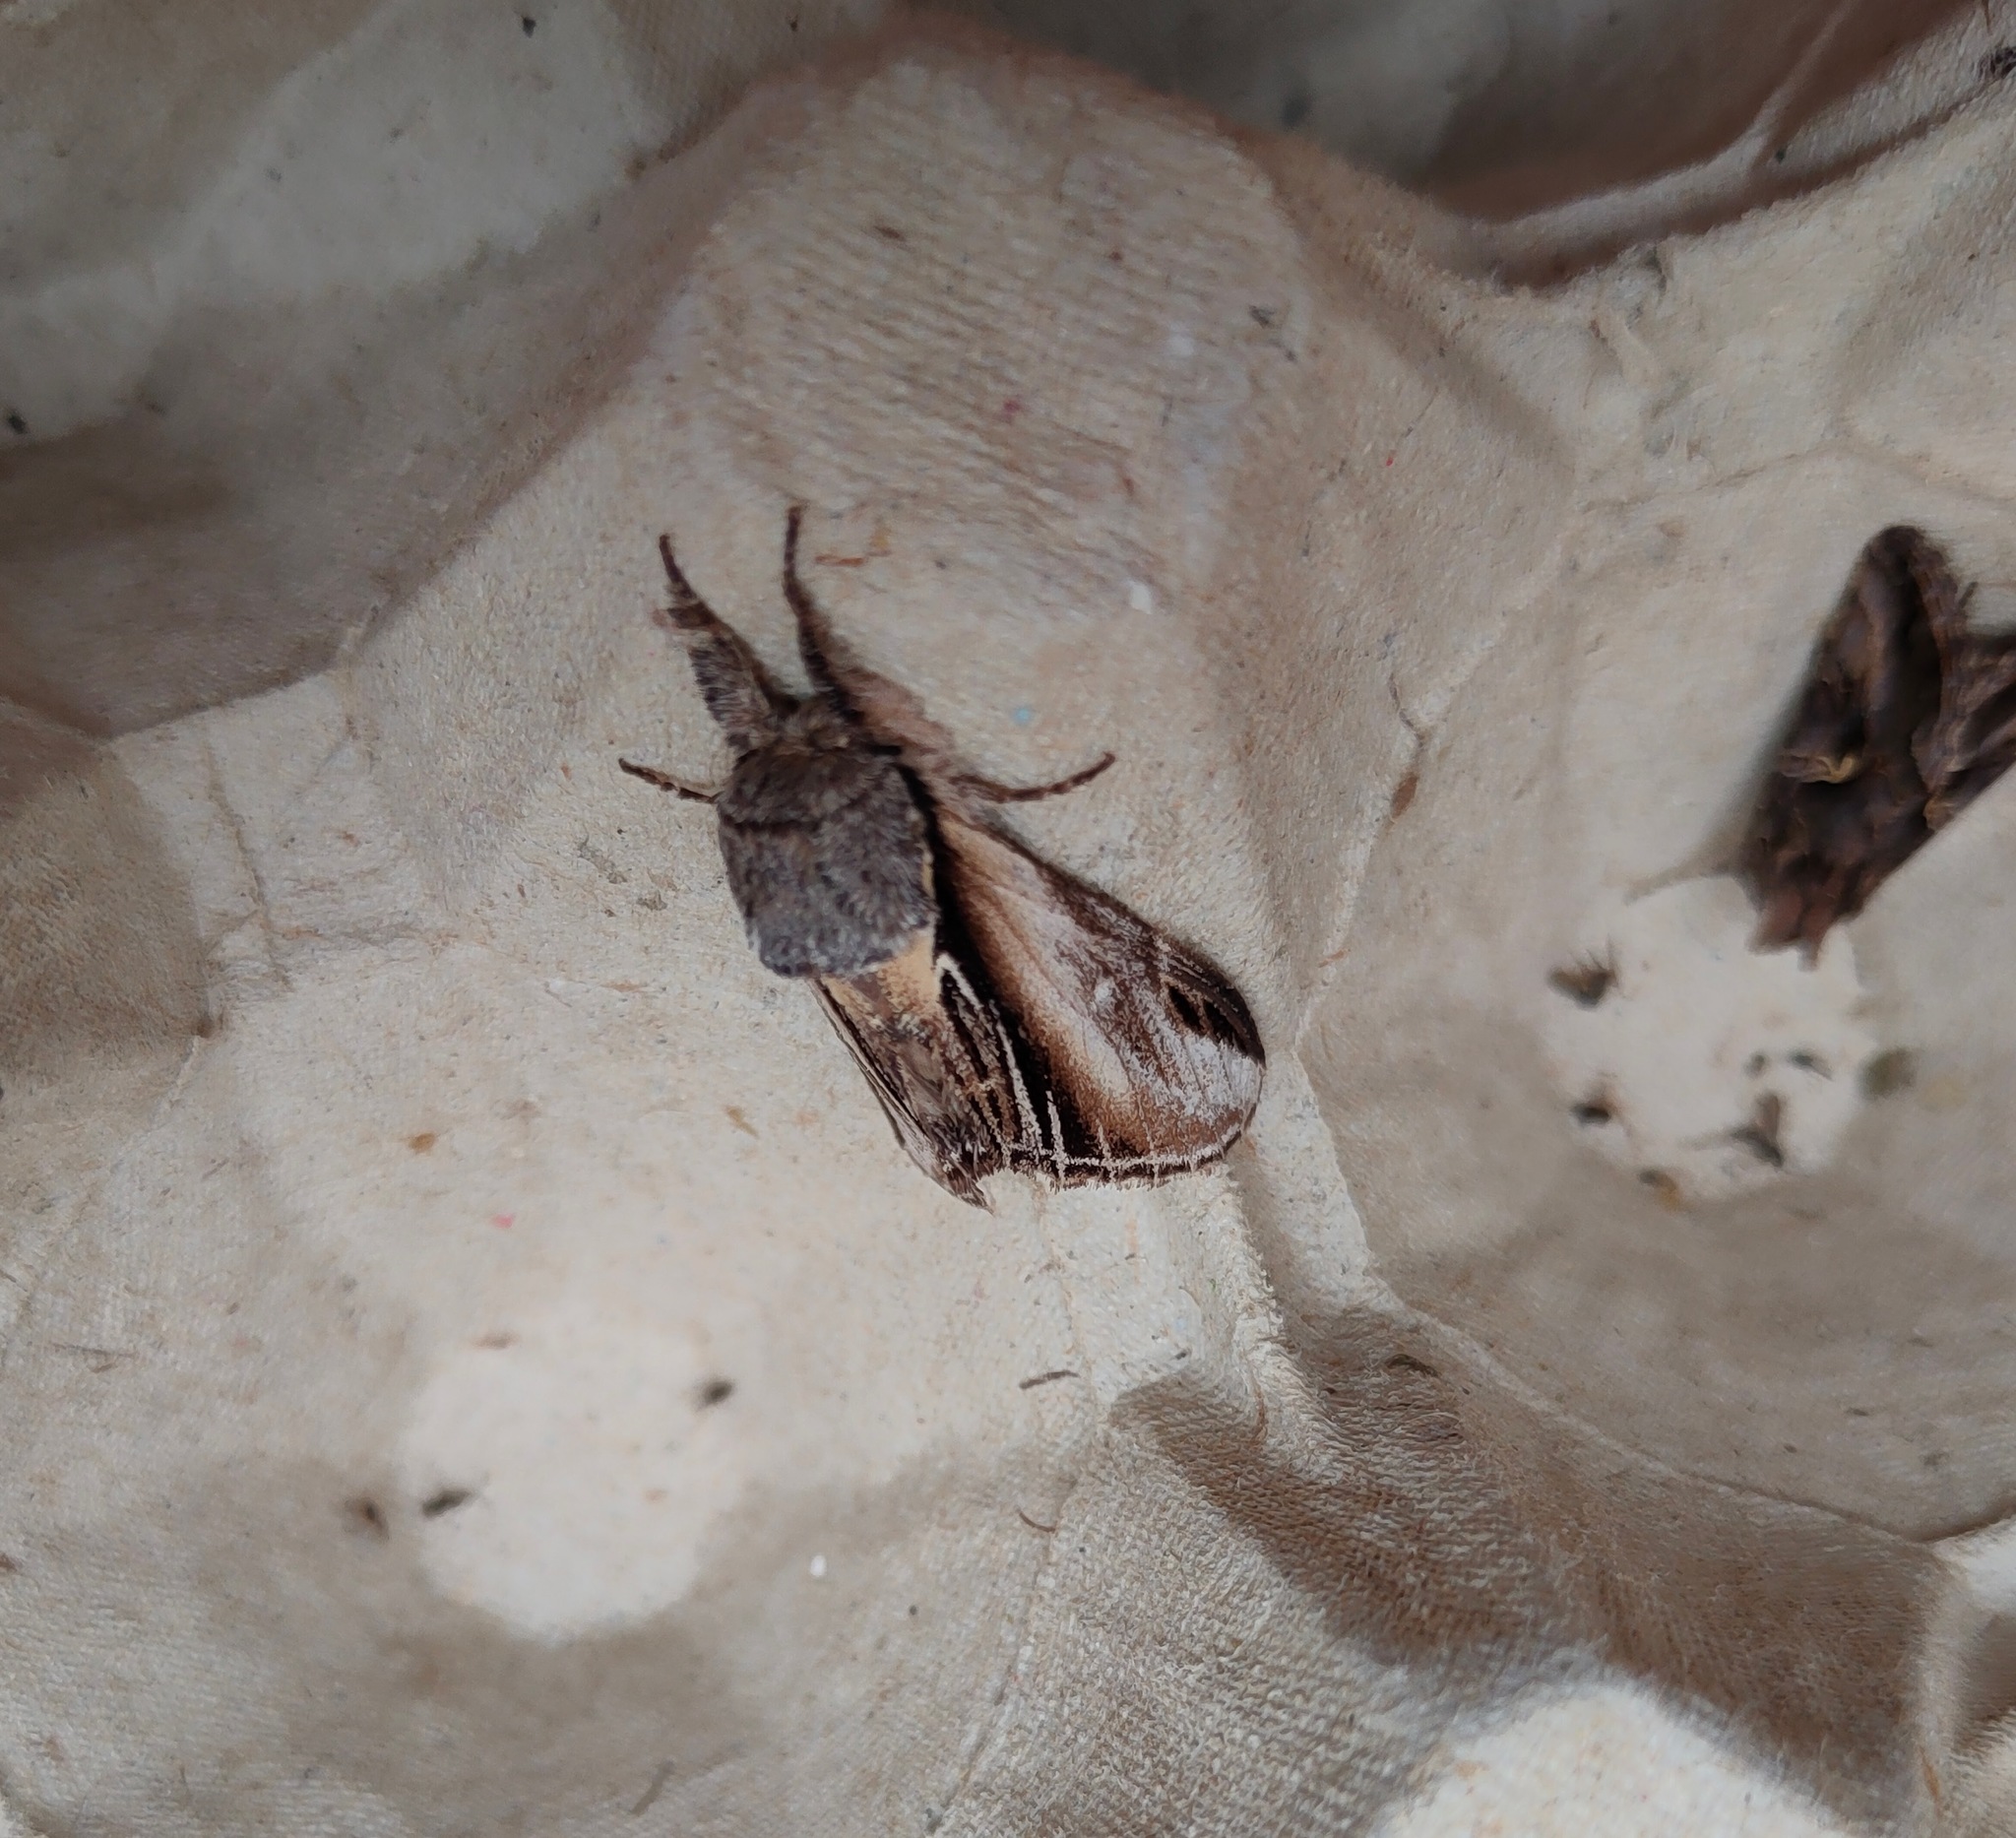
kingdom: Animalia
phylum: Arthropoda
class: Insecta
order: Lepidoptera
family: Notodontidae
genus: Pheosia
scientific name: Pheosia tremula
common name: Swallow prominent
